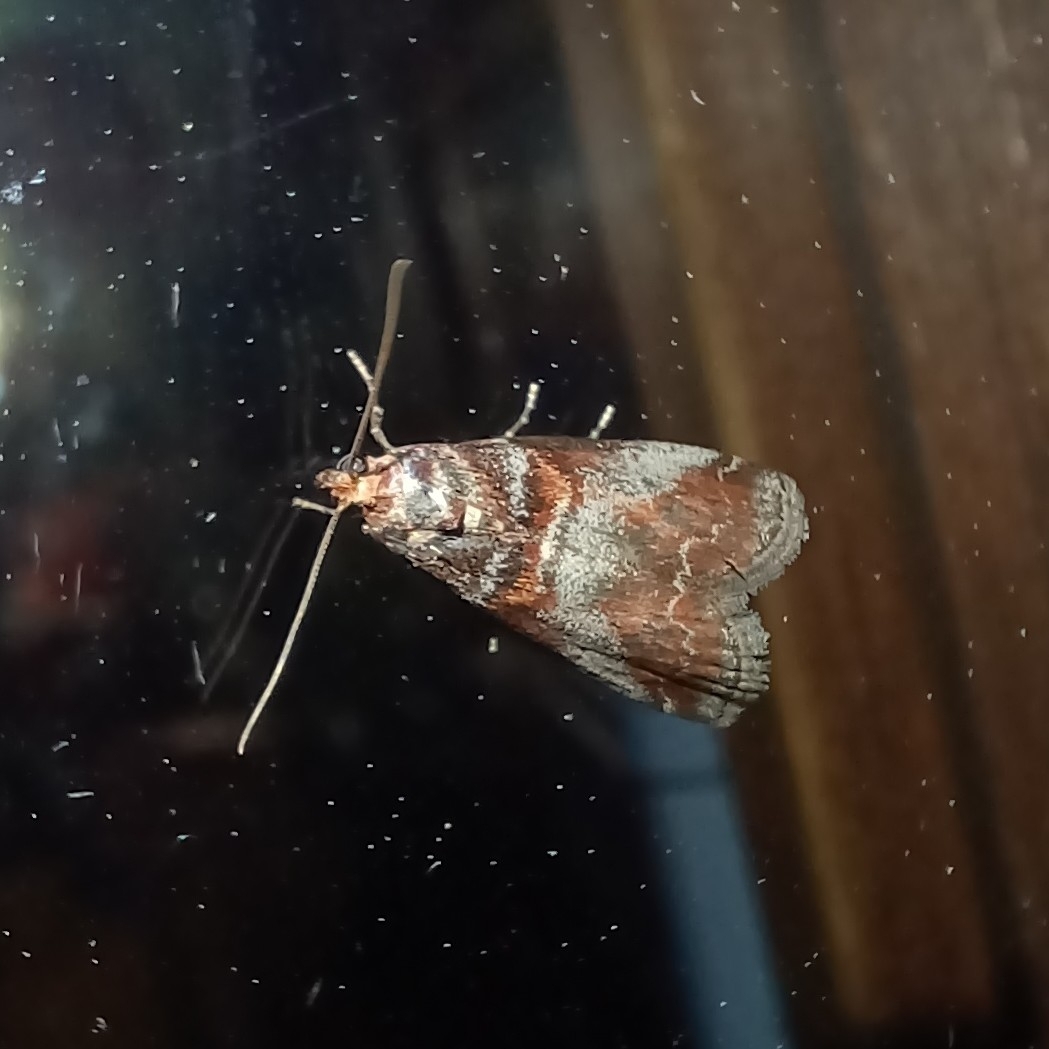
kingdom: Animalia
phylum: Arthropoda
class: Insecta
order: Lepidoptera
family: Pyralidae
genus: Acrobasis
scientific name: Acrobasis advenella
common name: Grey knot-horn
